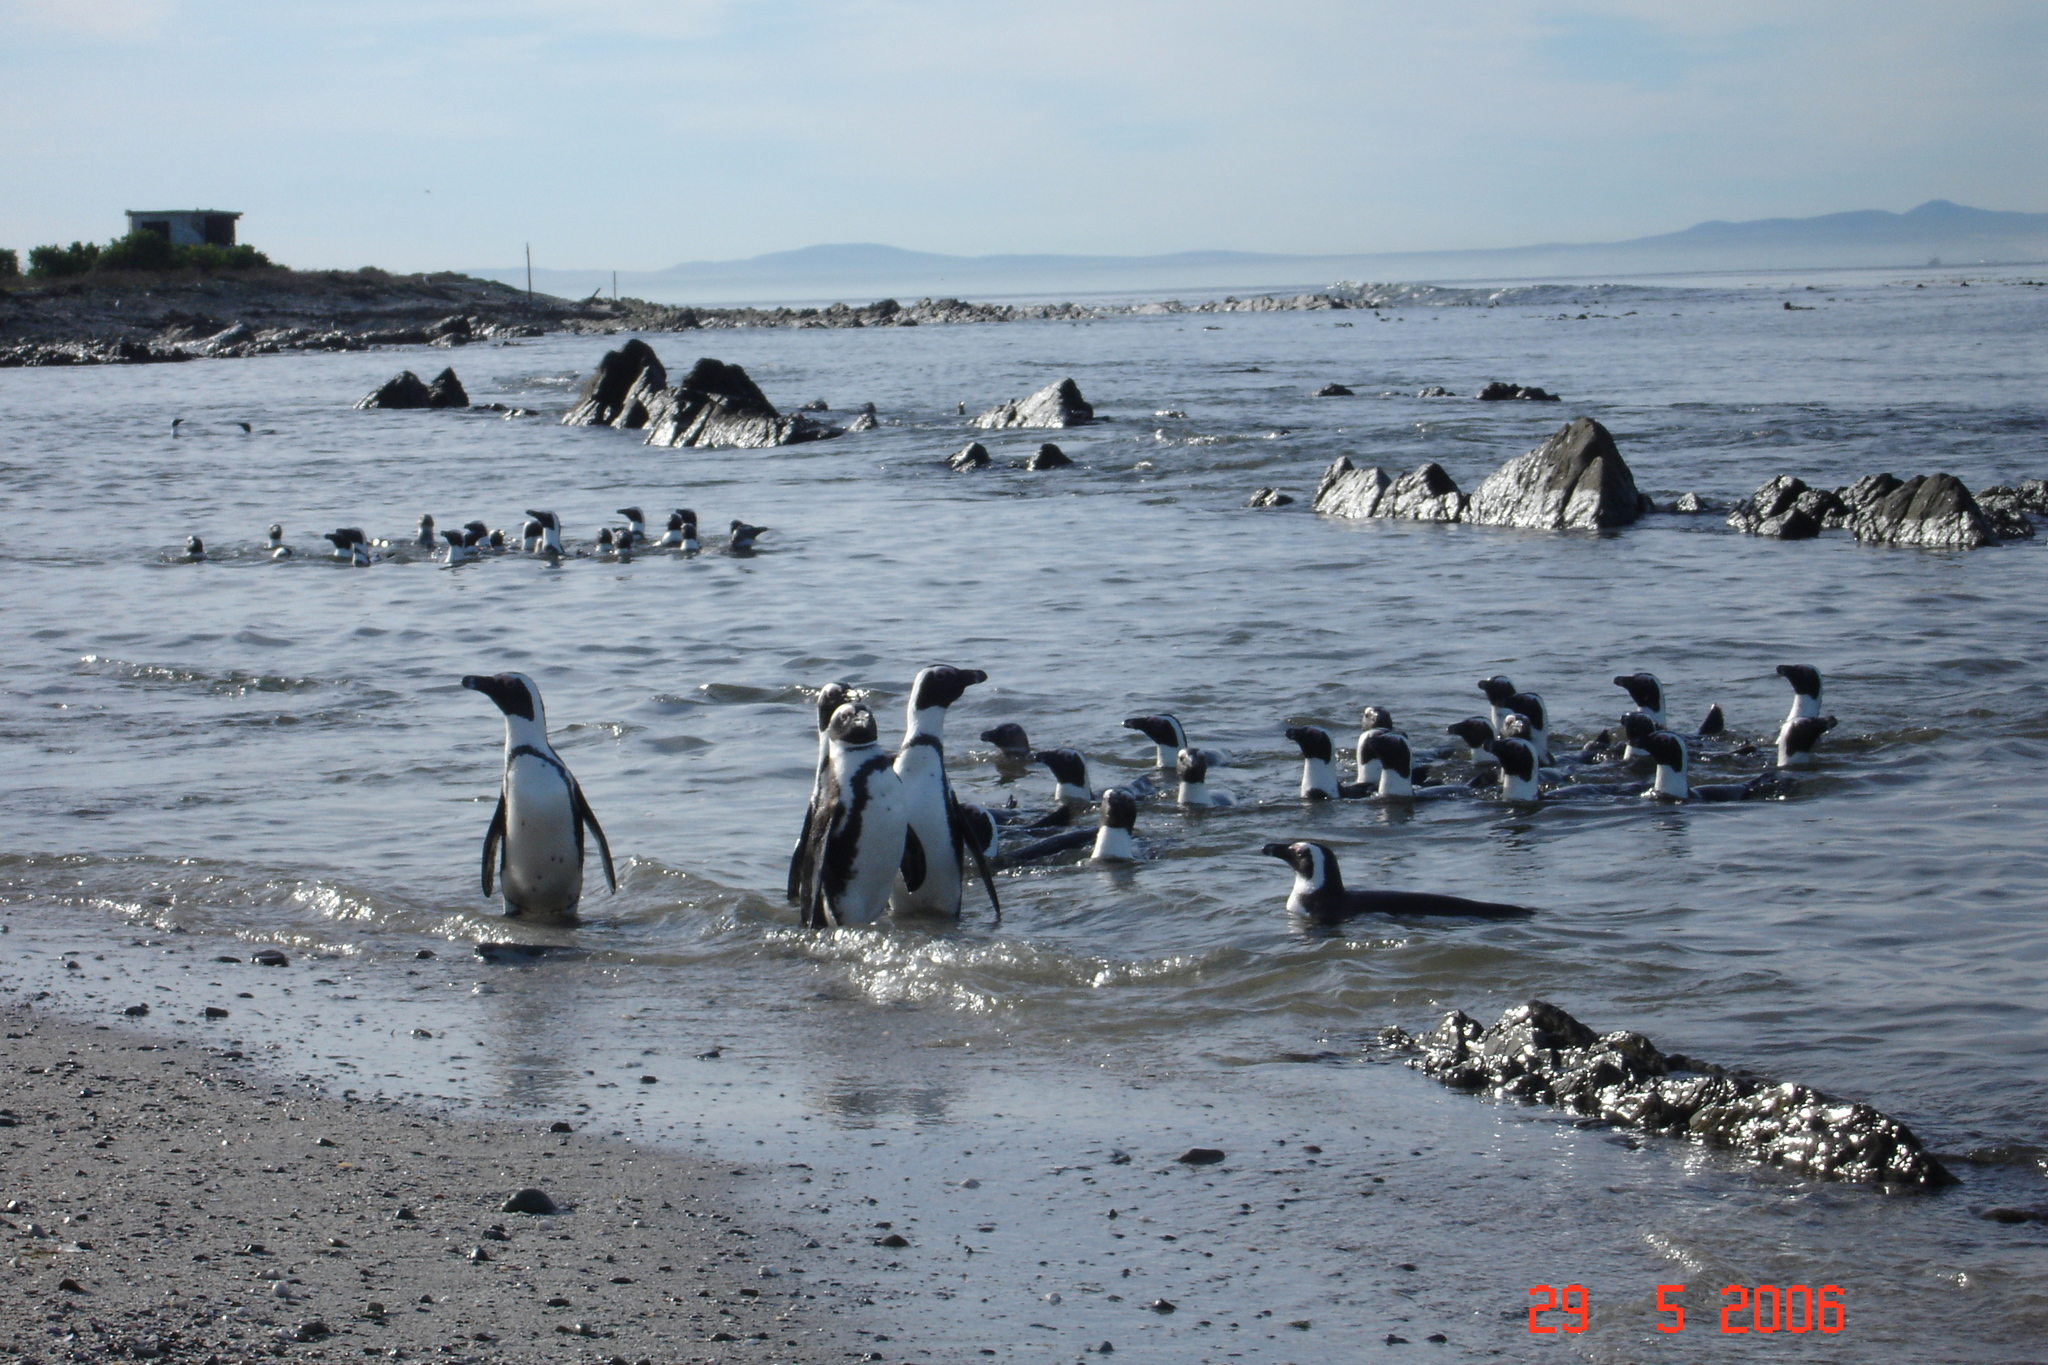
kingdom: Animalia
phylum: Chordata
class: Aves
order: Sphenisciformes
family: Spheniscidae
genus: Spheniscus
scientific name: Spheniscus demersus
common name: African penguin
